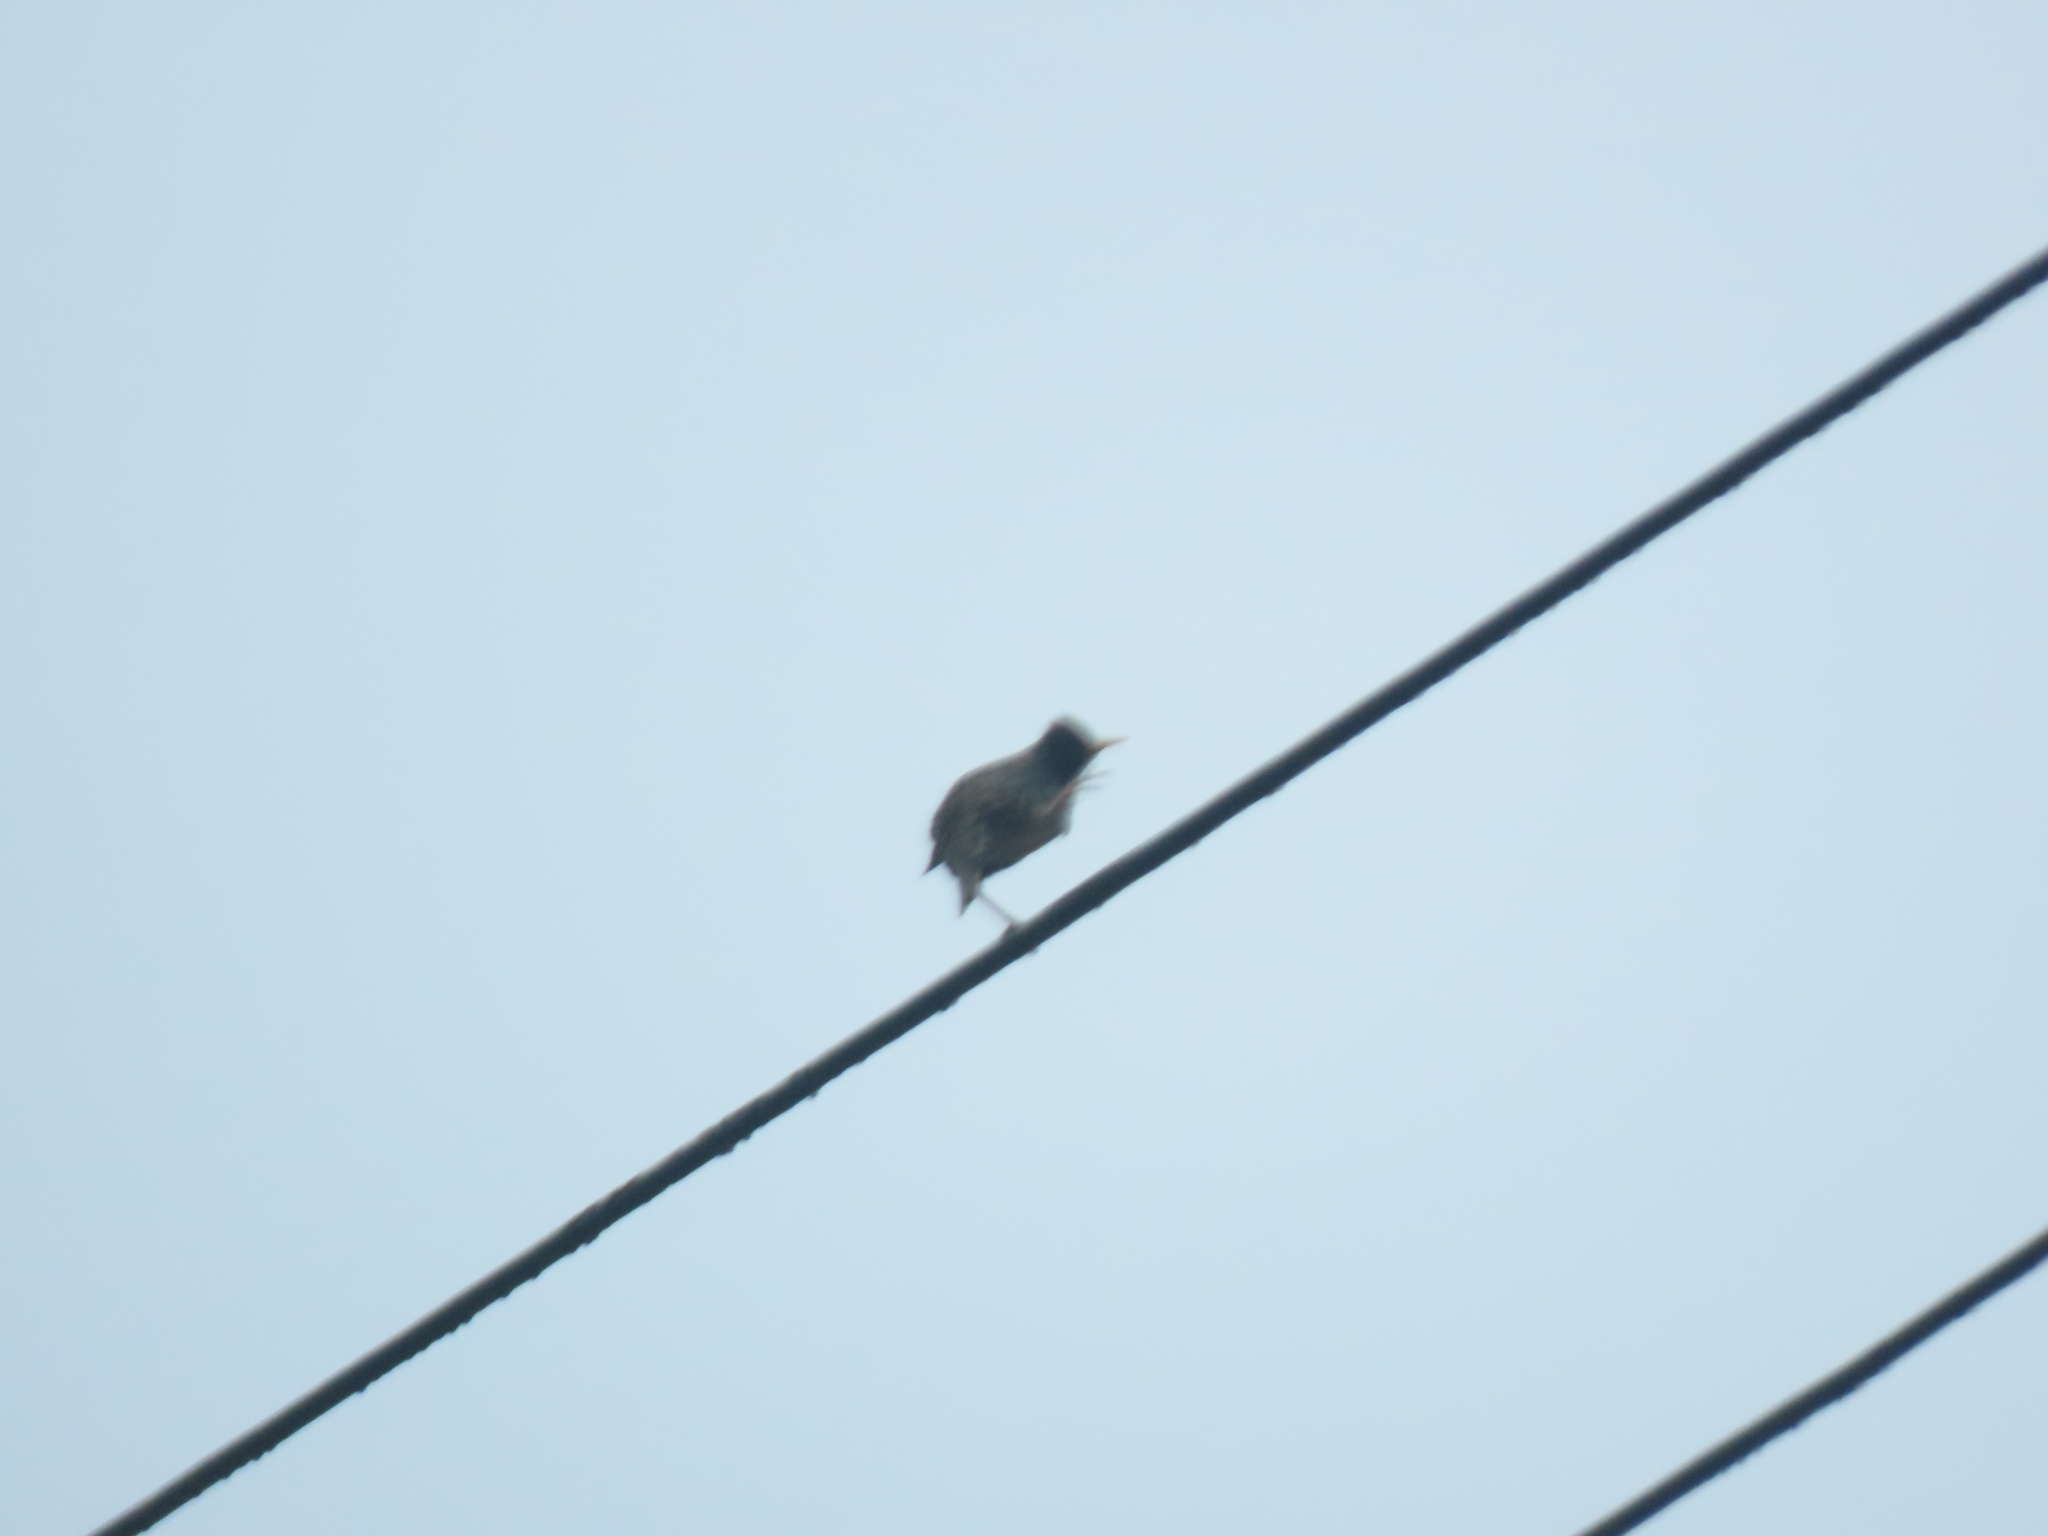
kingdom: Animalia
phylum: Chordata
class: Aves
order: Passeriformes
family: Sturnidae
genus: Sturnus
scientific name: Sturnus vulgaris
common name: Common starling
